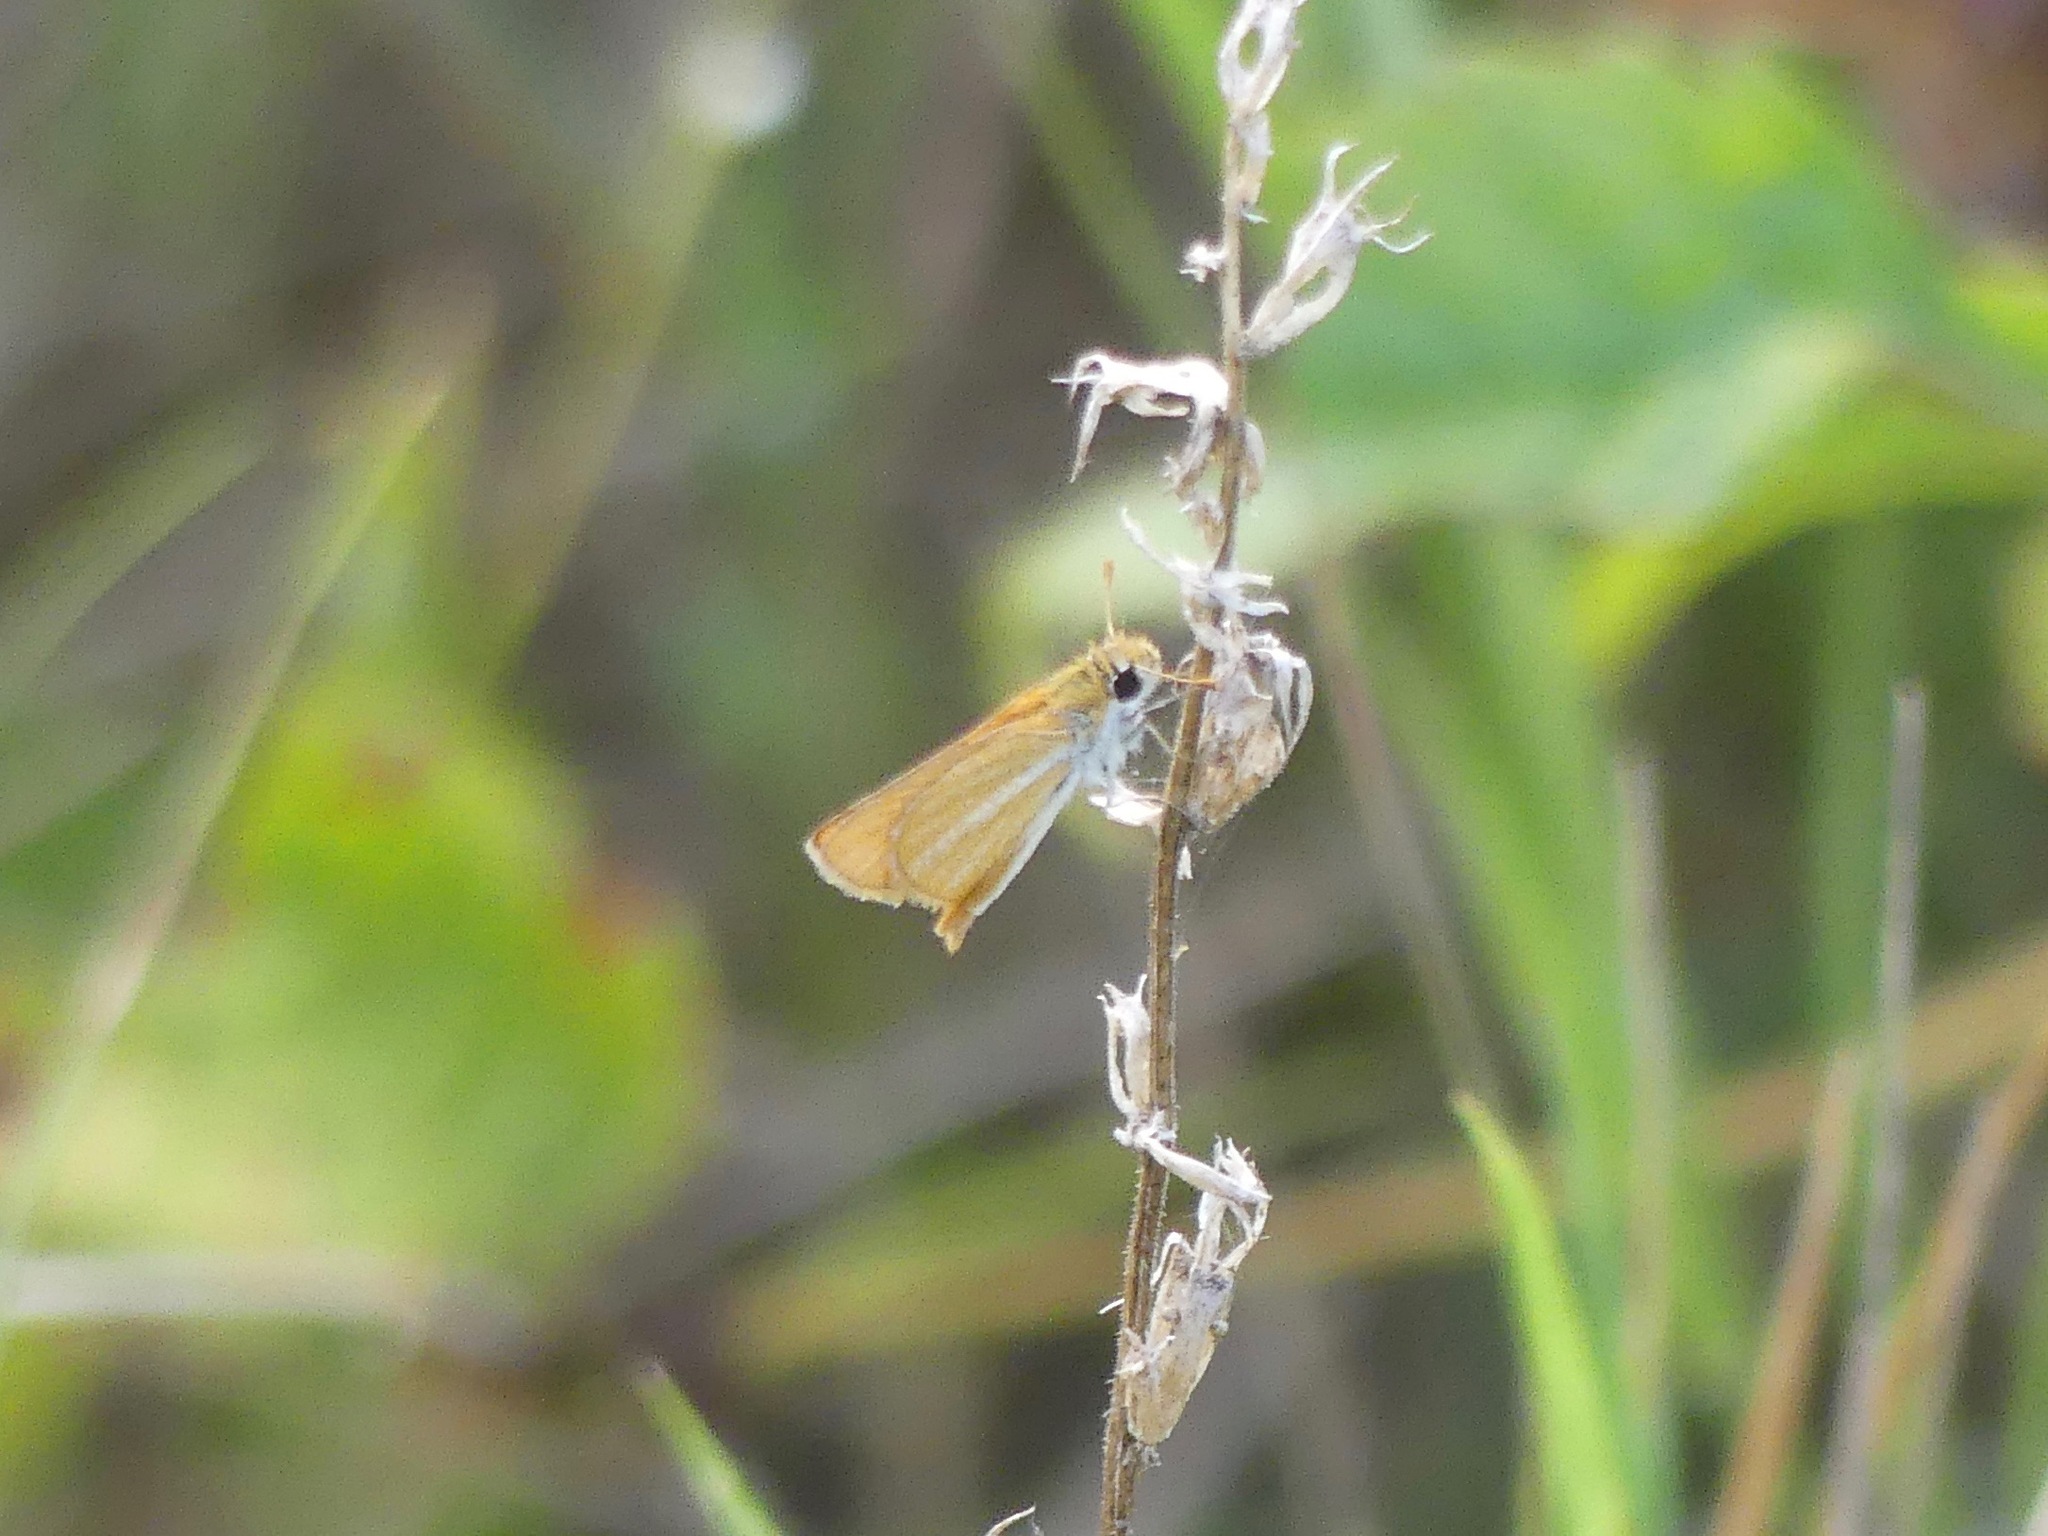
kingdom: Animalia
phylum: Arthropoda
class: Insecta
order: Lepidoptera
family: Hesperiidae
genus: Copaeodes
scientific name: Copaeodes minima
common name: Southern skipperling
